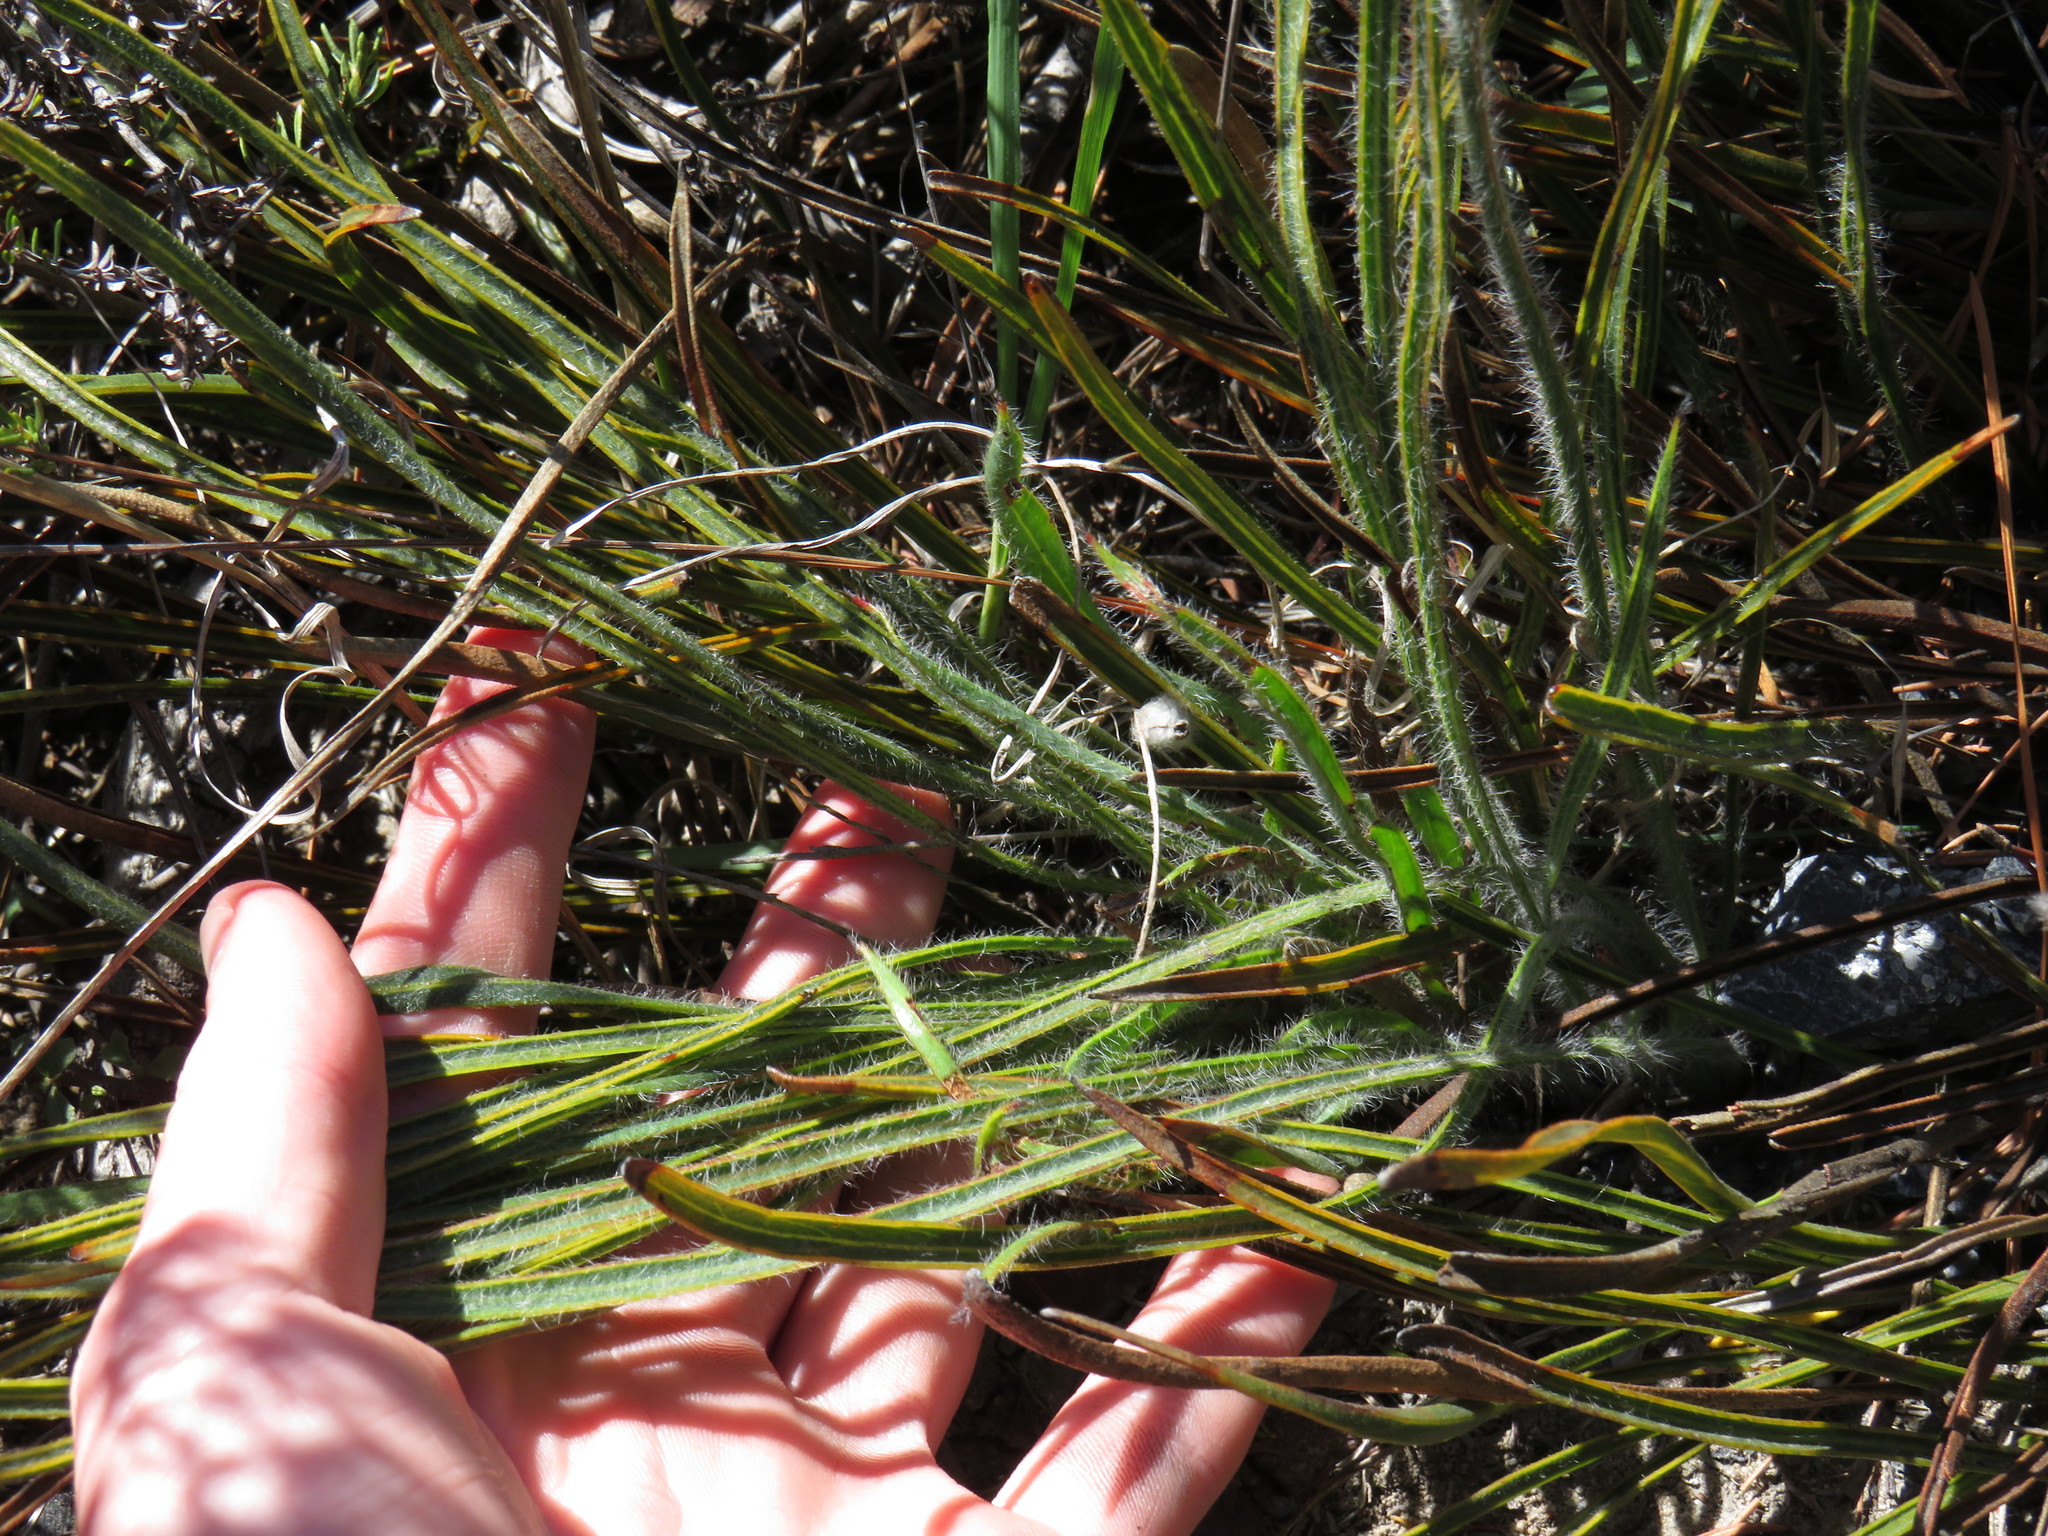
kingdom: Plantae
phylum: Tracheophyta
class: Magnoliopsida
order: Proteales
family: Proteaceae
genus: Protea
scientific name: Protea piscina
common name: Visgat sugarbush
